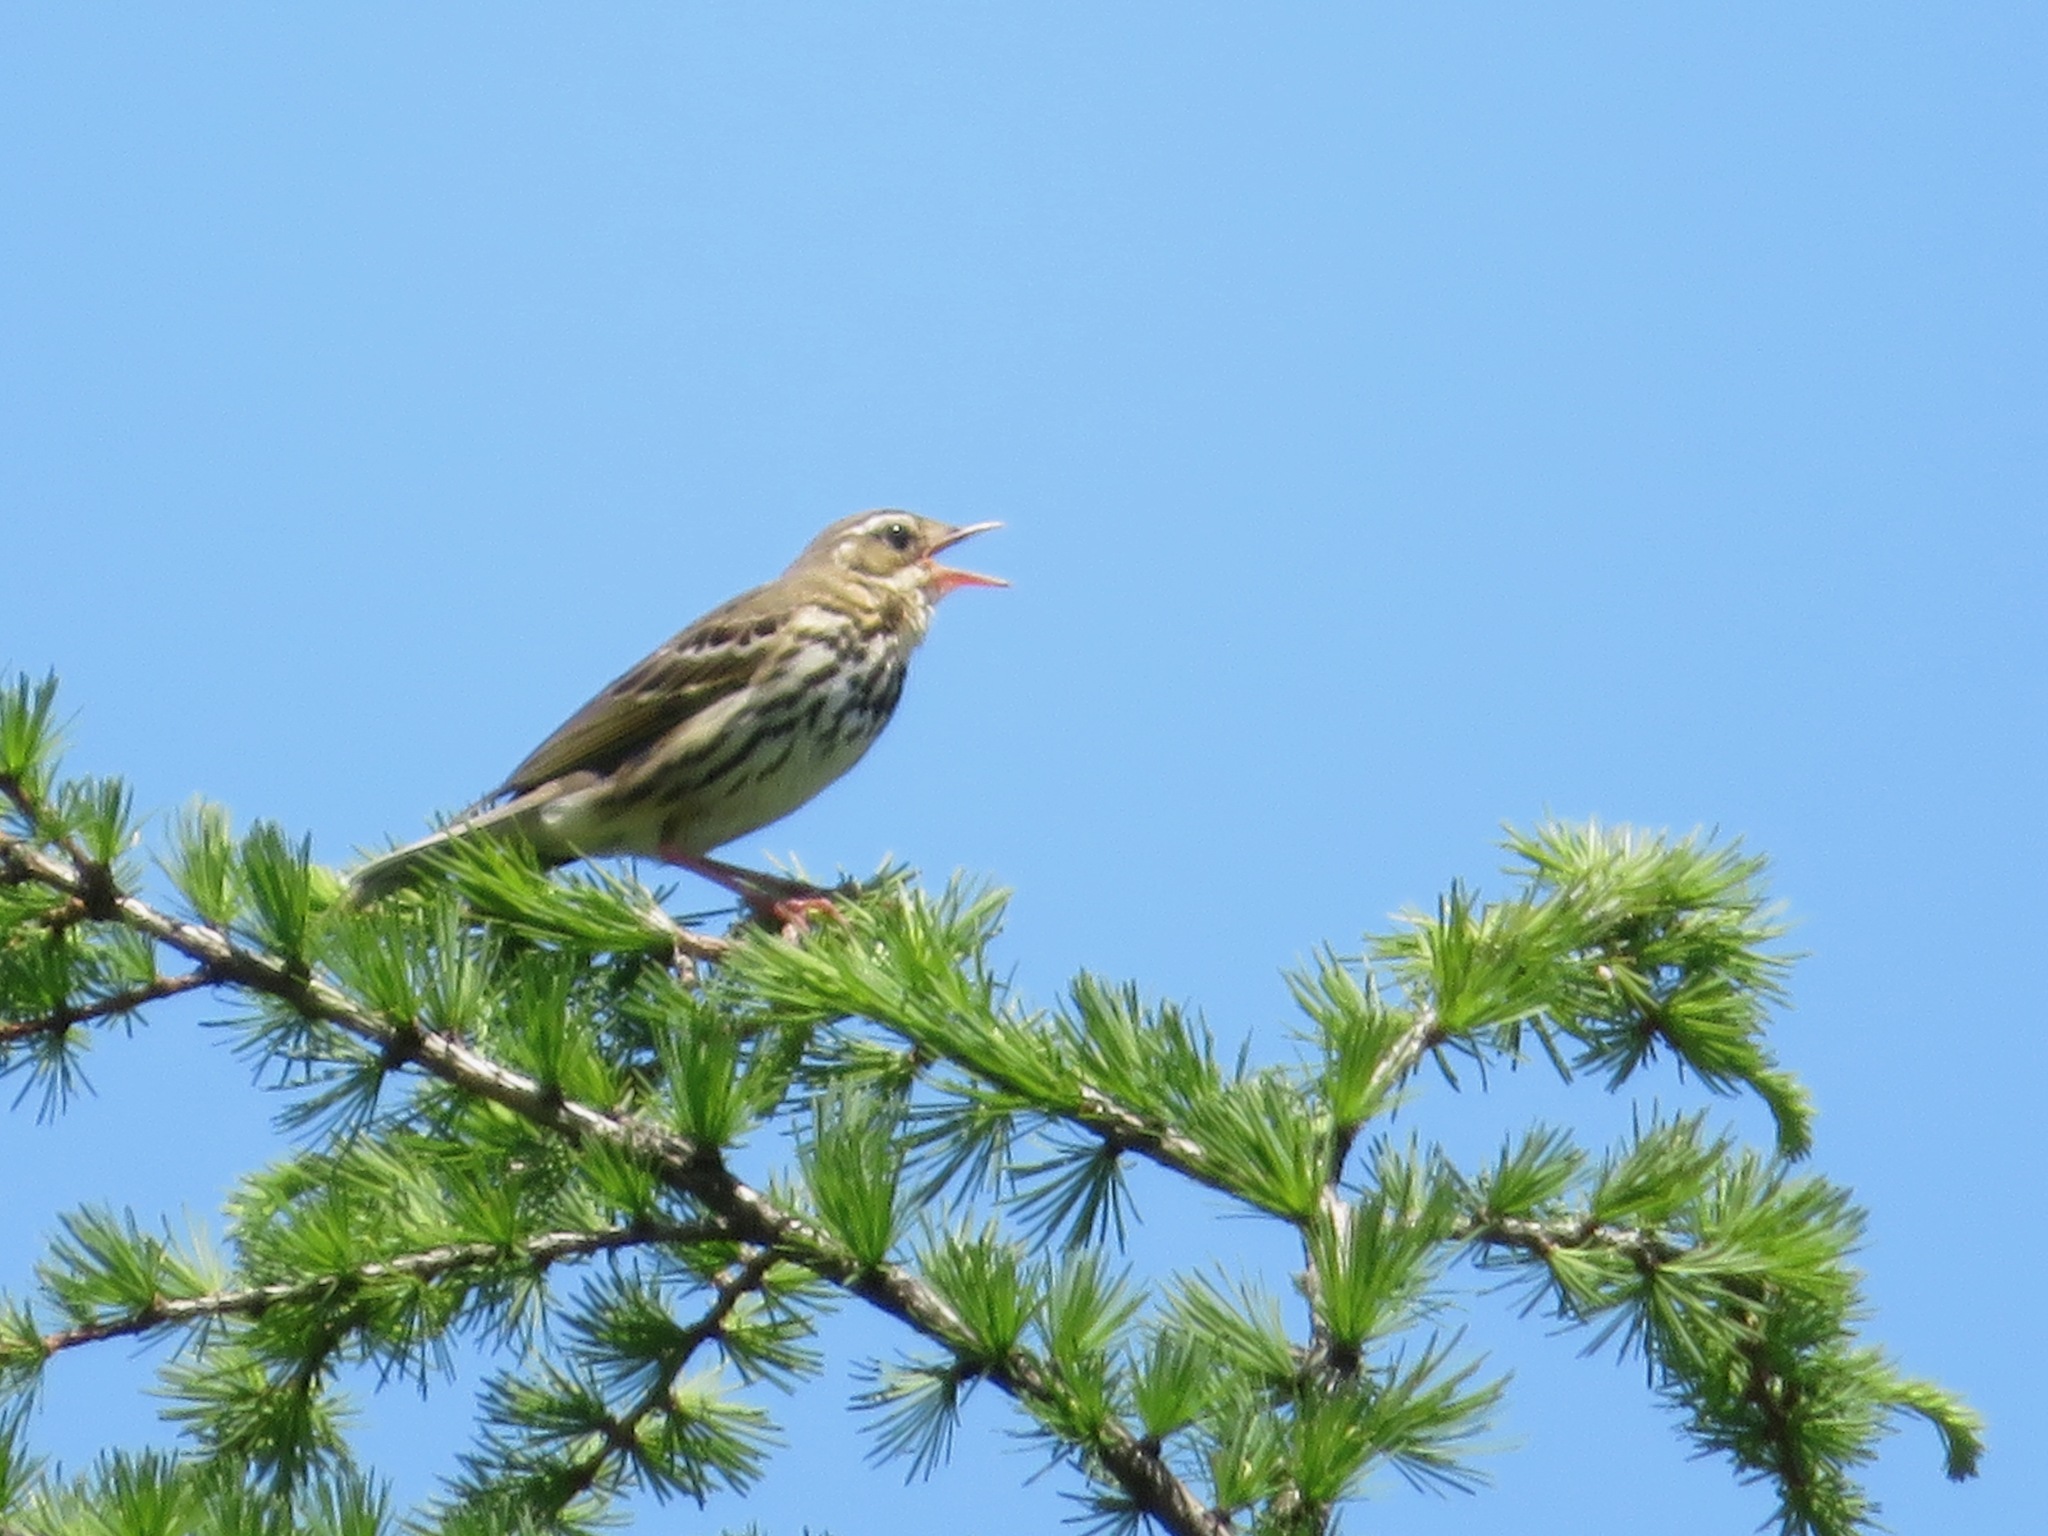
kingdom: Animalia
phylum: Chordata
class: Aves
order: Passeriformes
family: Motacillidae
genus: Anthus
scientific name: Anthus hodgsoni
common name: Olive-backed pipit
